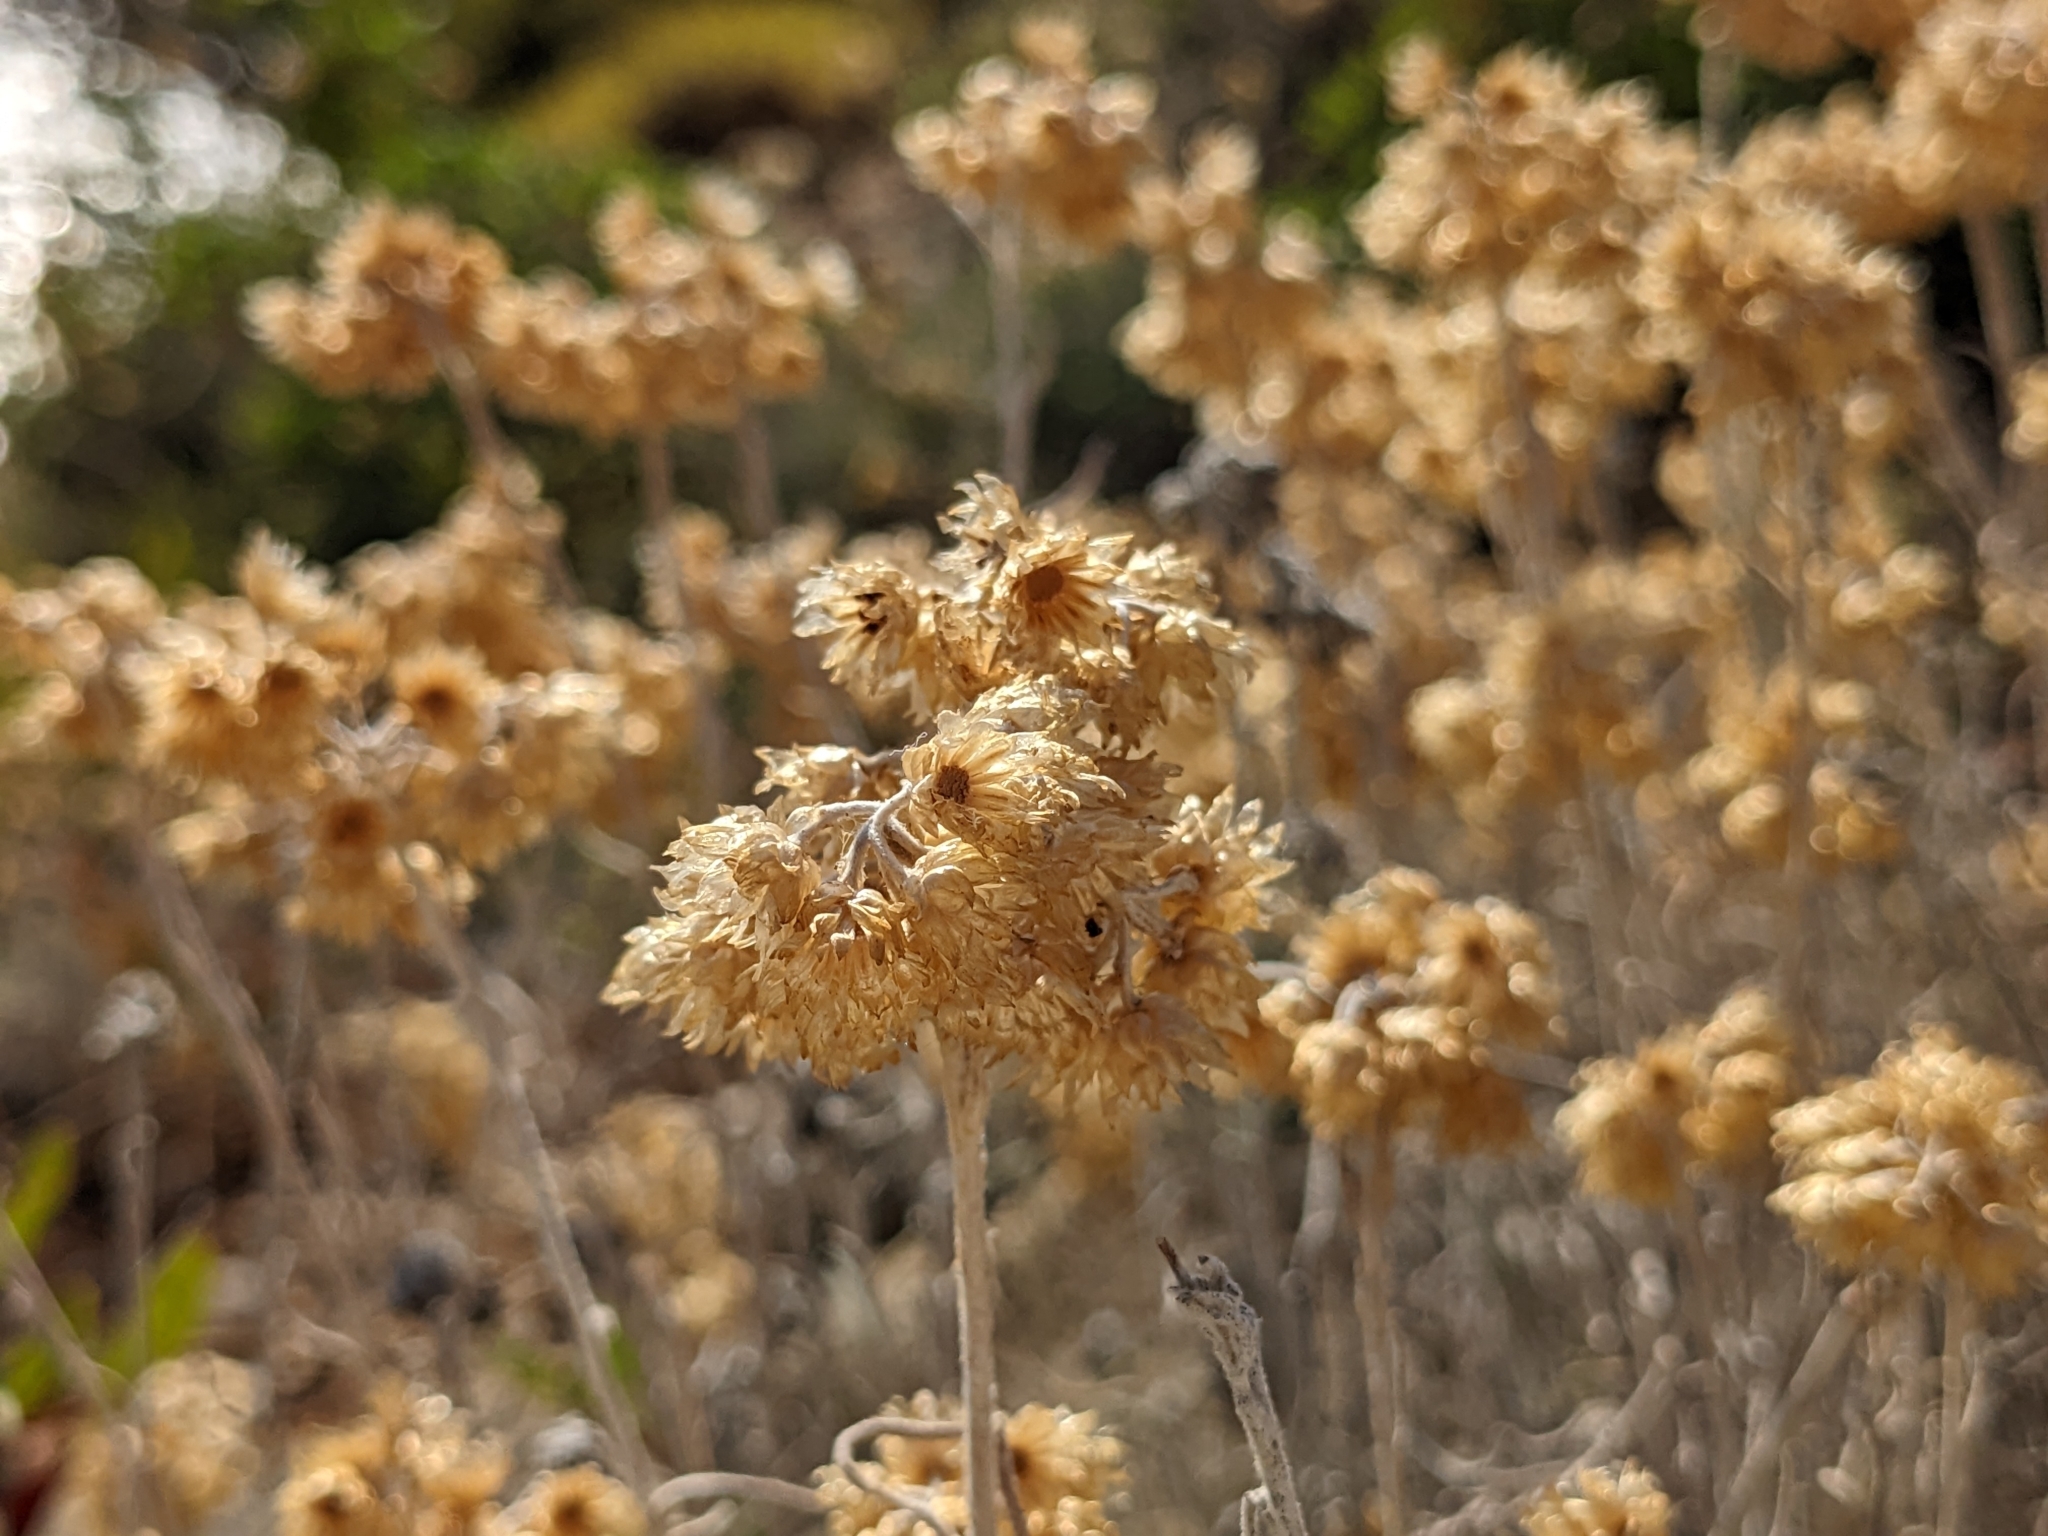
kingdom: Plantae
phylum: Tracheophyta
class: Magnoliopsida
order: Asterales
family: Asteraceae
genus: Helichrysum
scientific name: Helichrysum stoechas
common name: Goldilocks
